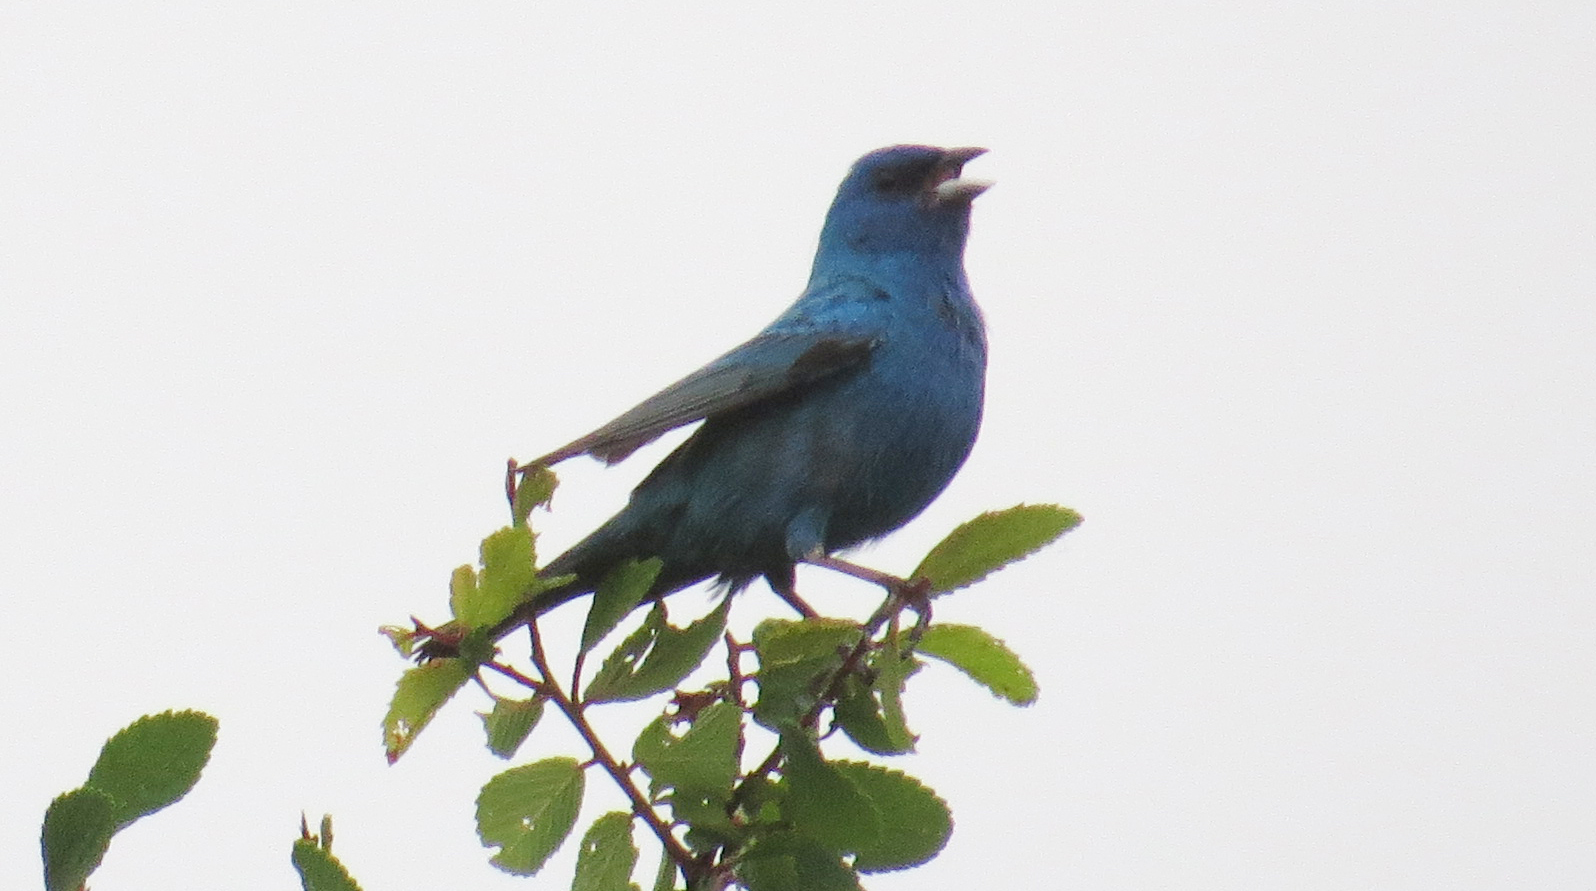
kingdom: Animalia
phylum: Chordata
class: Aves
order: Passeriformes
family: Cardinalidae
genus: Passerina
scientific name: Passerina cyanea
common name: Indigo bunting
